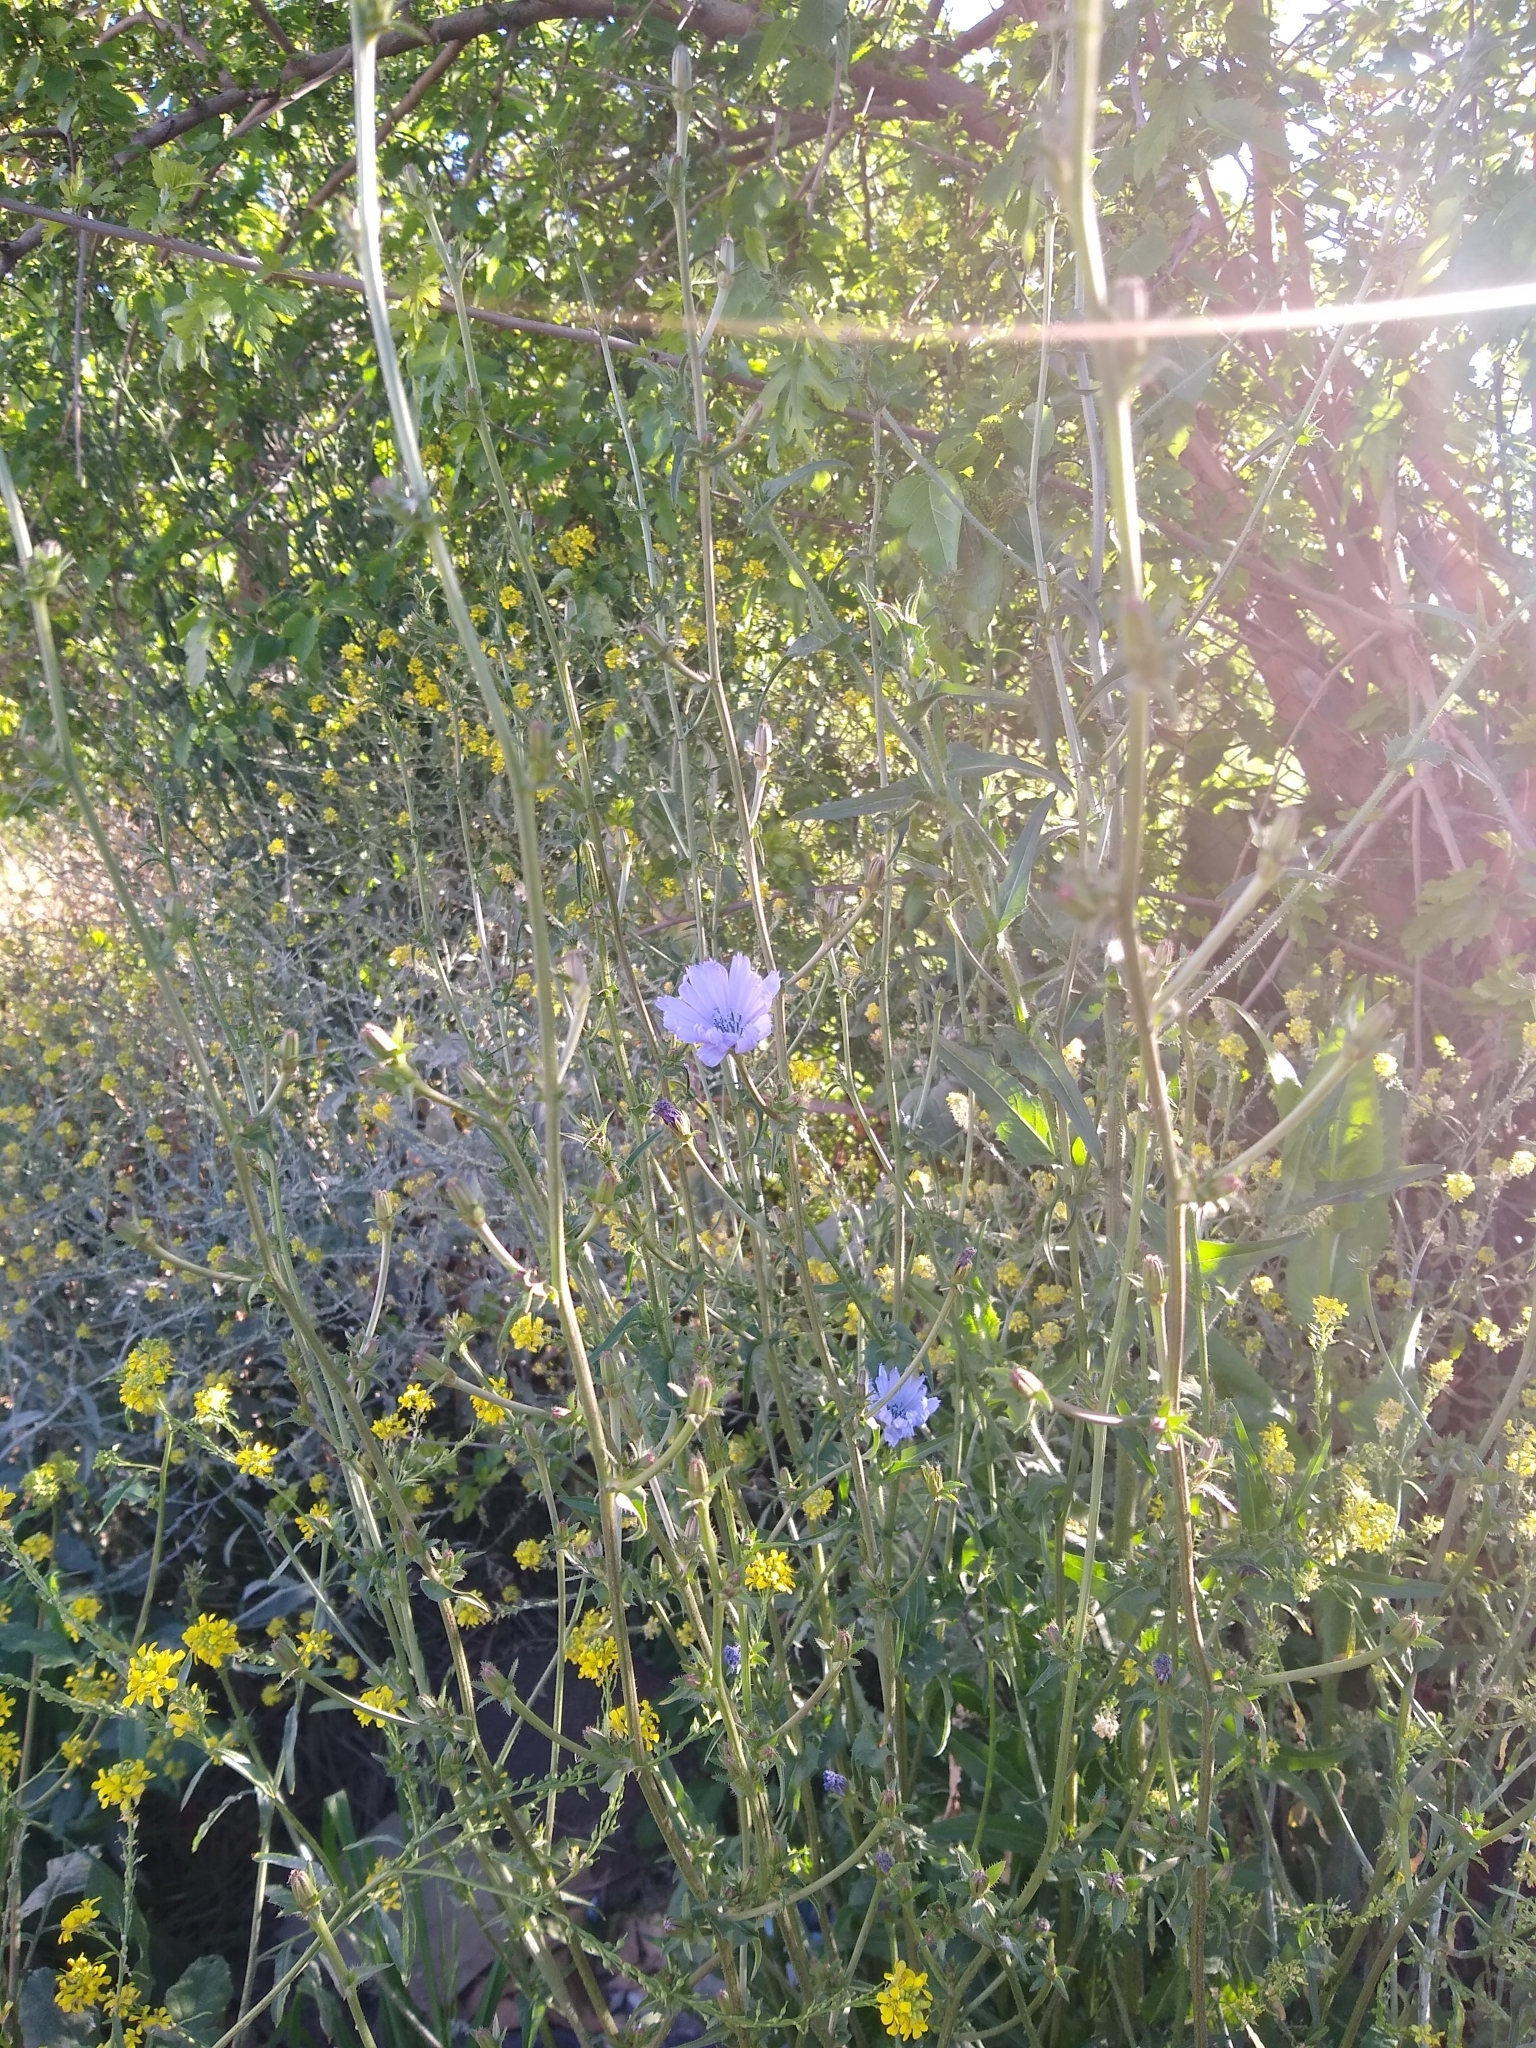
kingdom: Plantae
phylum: Tracheophyta
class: Magnoliopsida
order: Asterales
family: Asteraceae
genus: Cichorium
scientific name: Cichorium intybus
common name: Chicory
